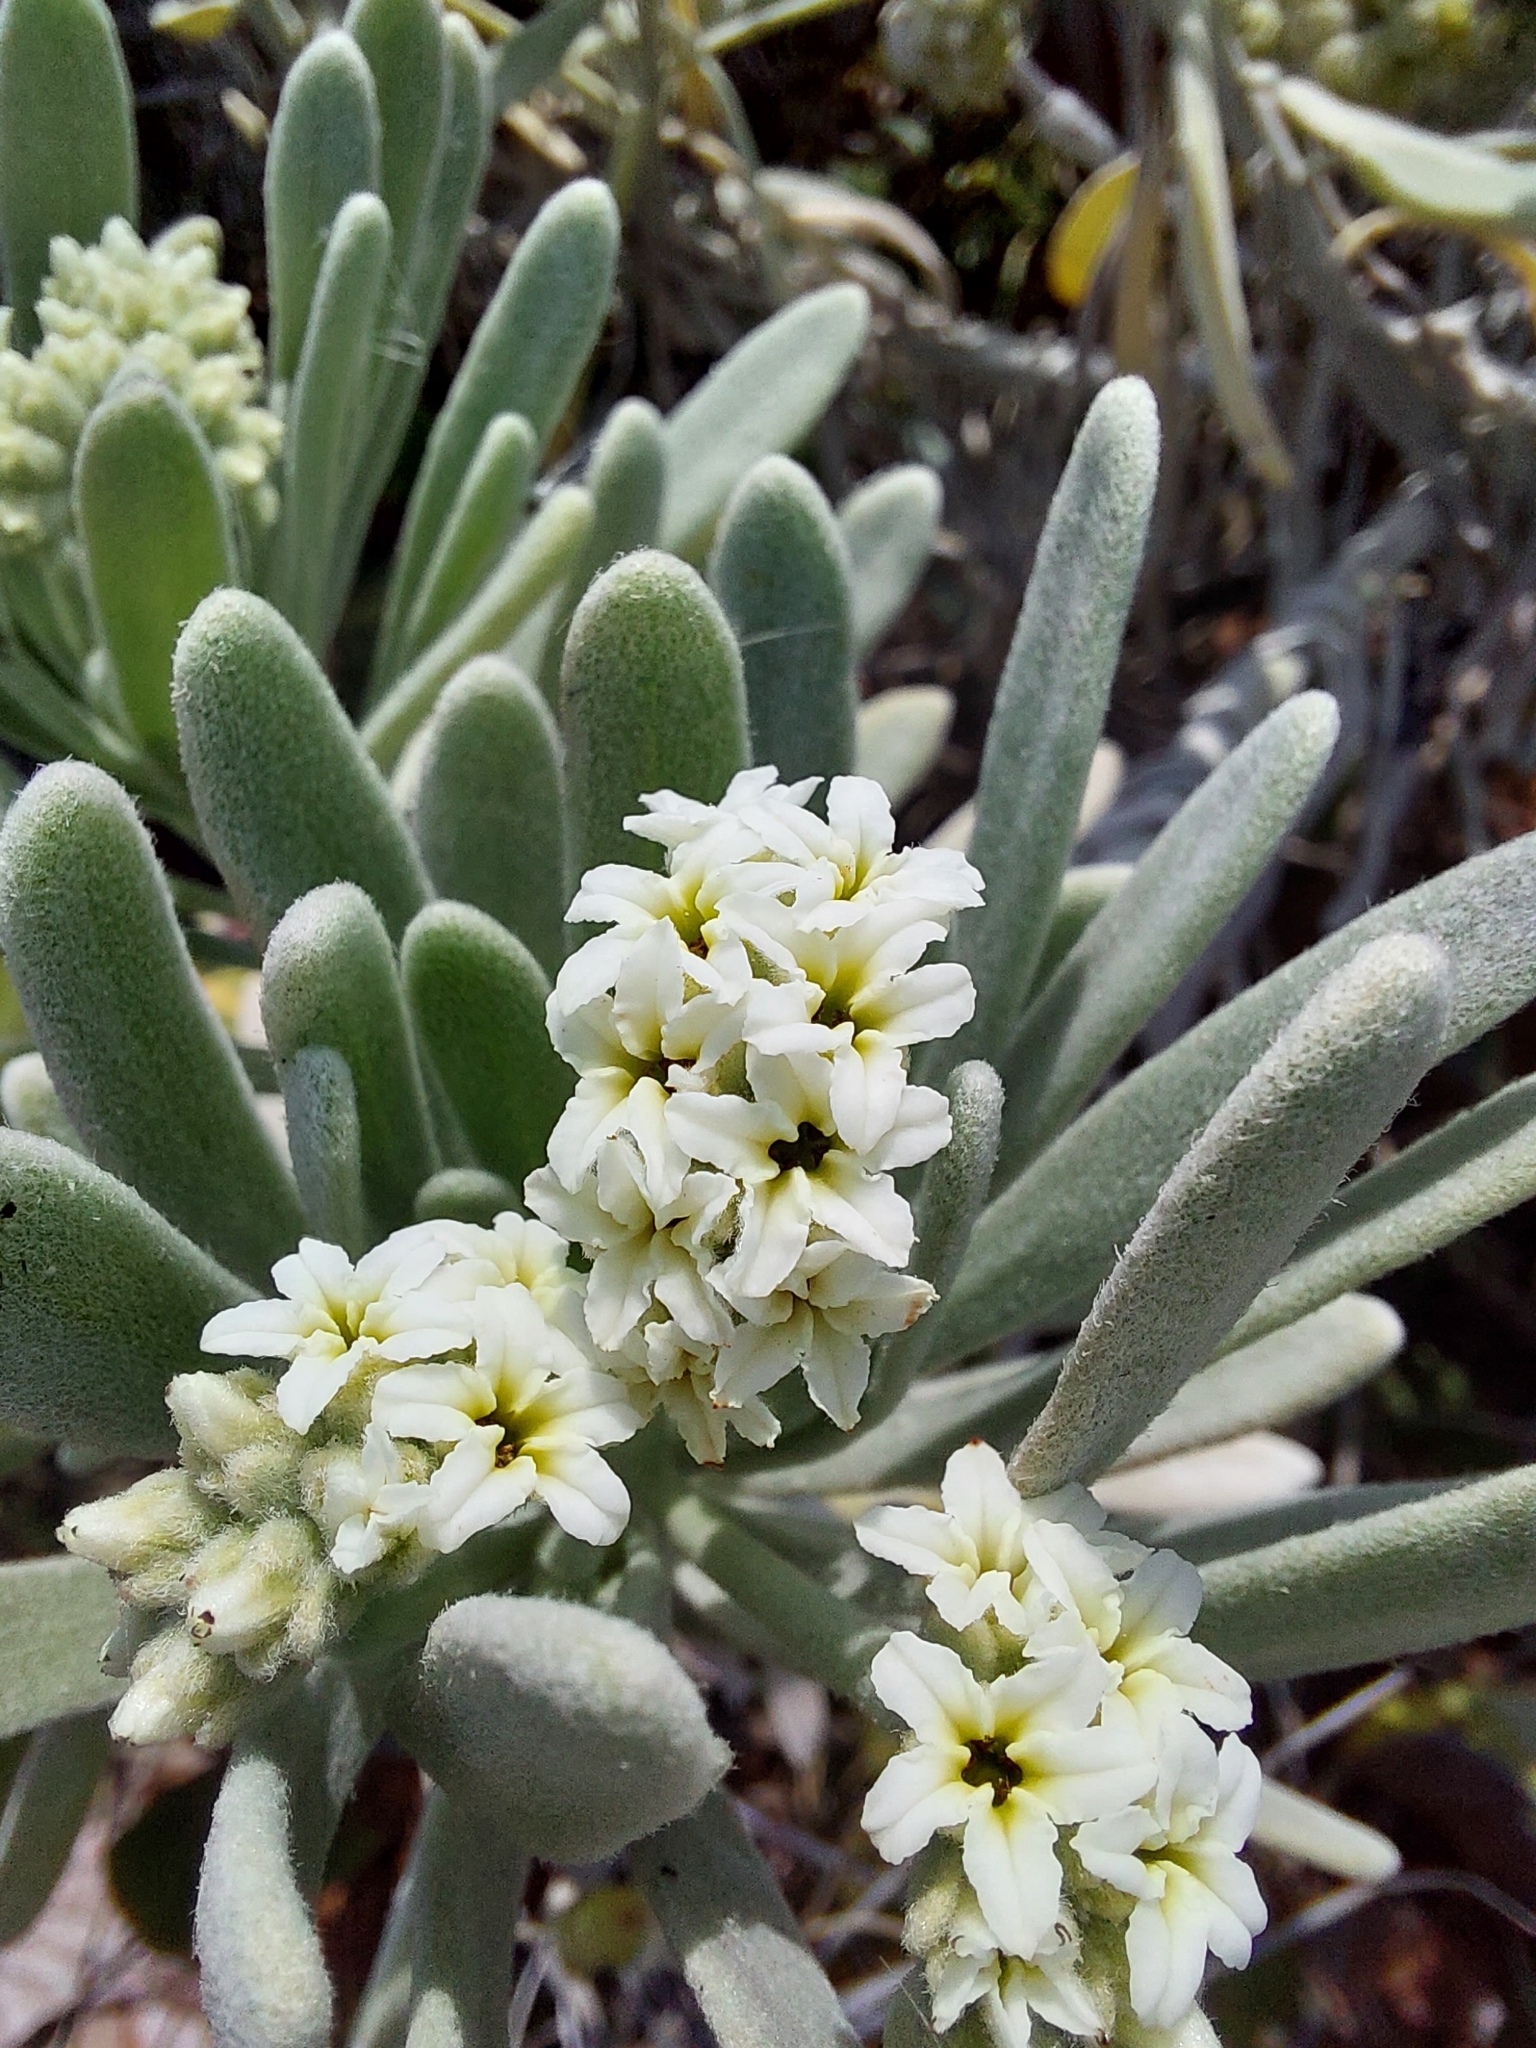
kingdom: Plantae
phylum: Tracheophyta
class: Magnoliopsida
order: Boraginales
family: Heliotropiaceae
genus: Tournefortia
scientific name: Tournefortia gnaphalodes
